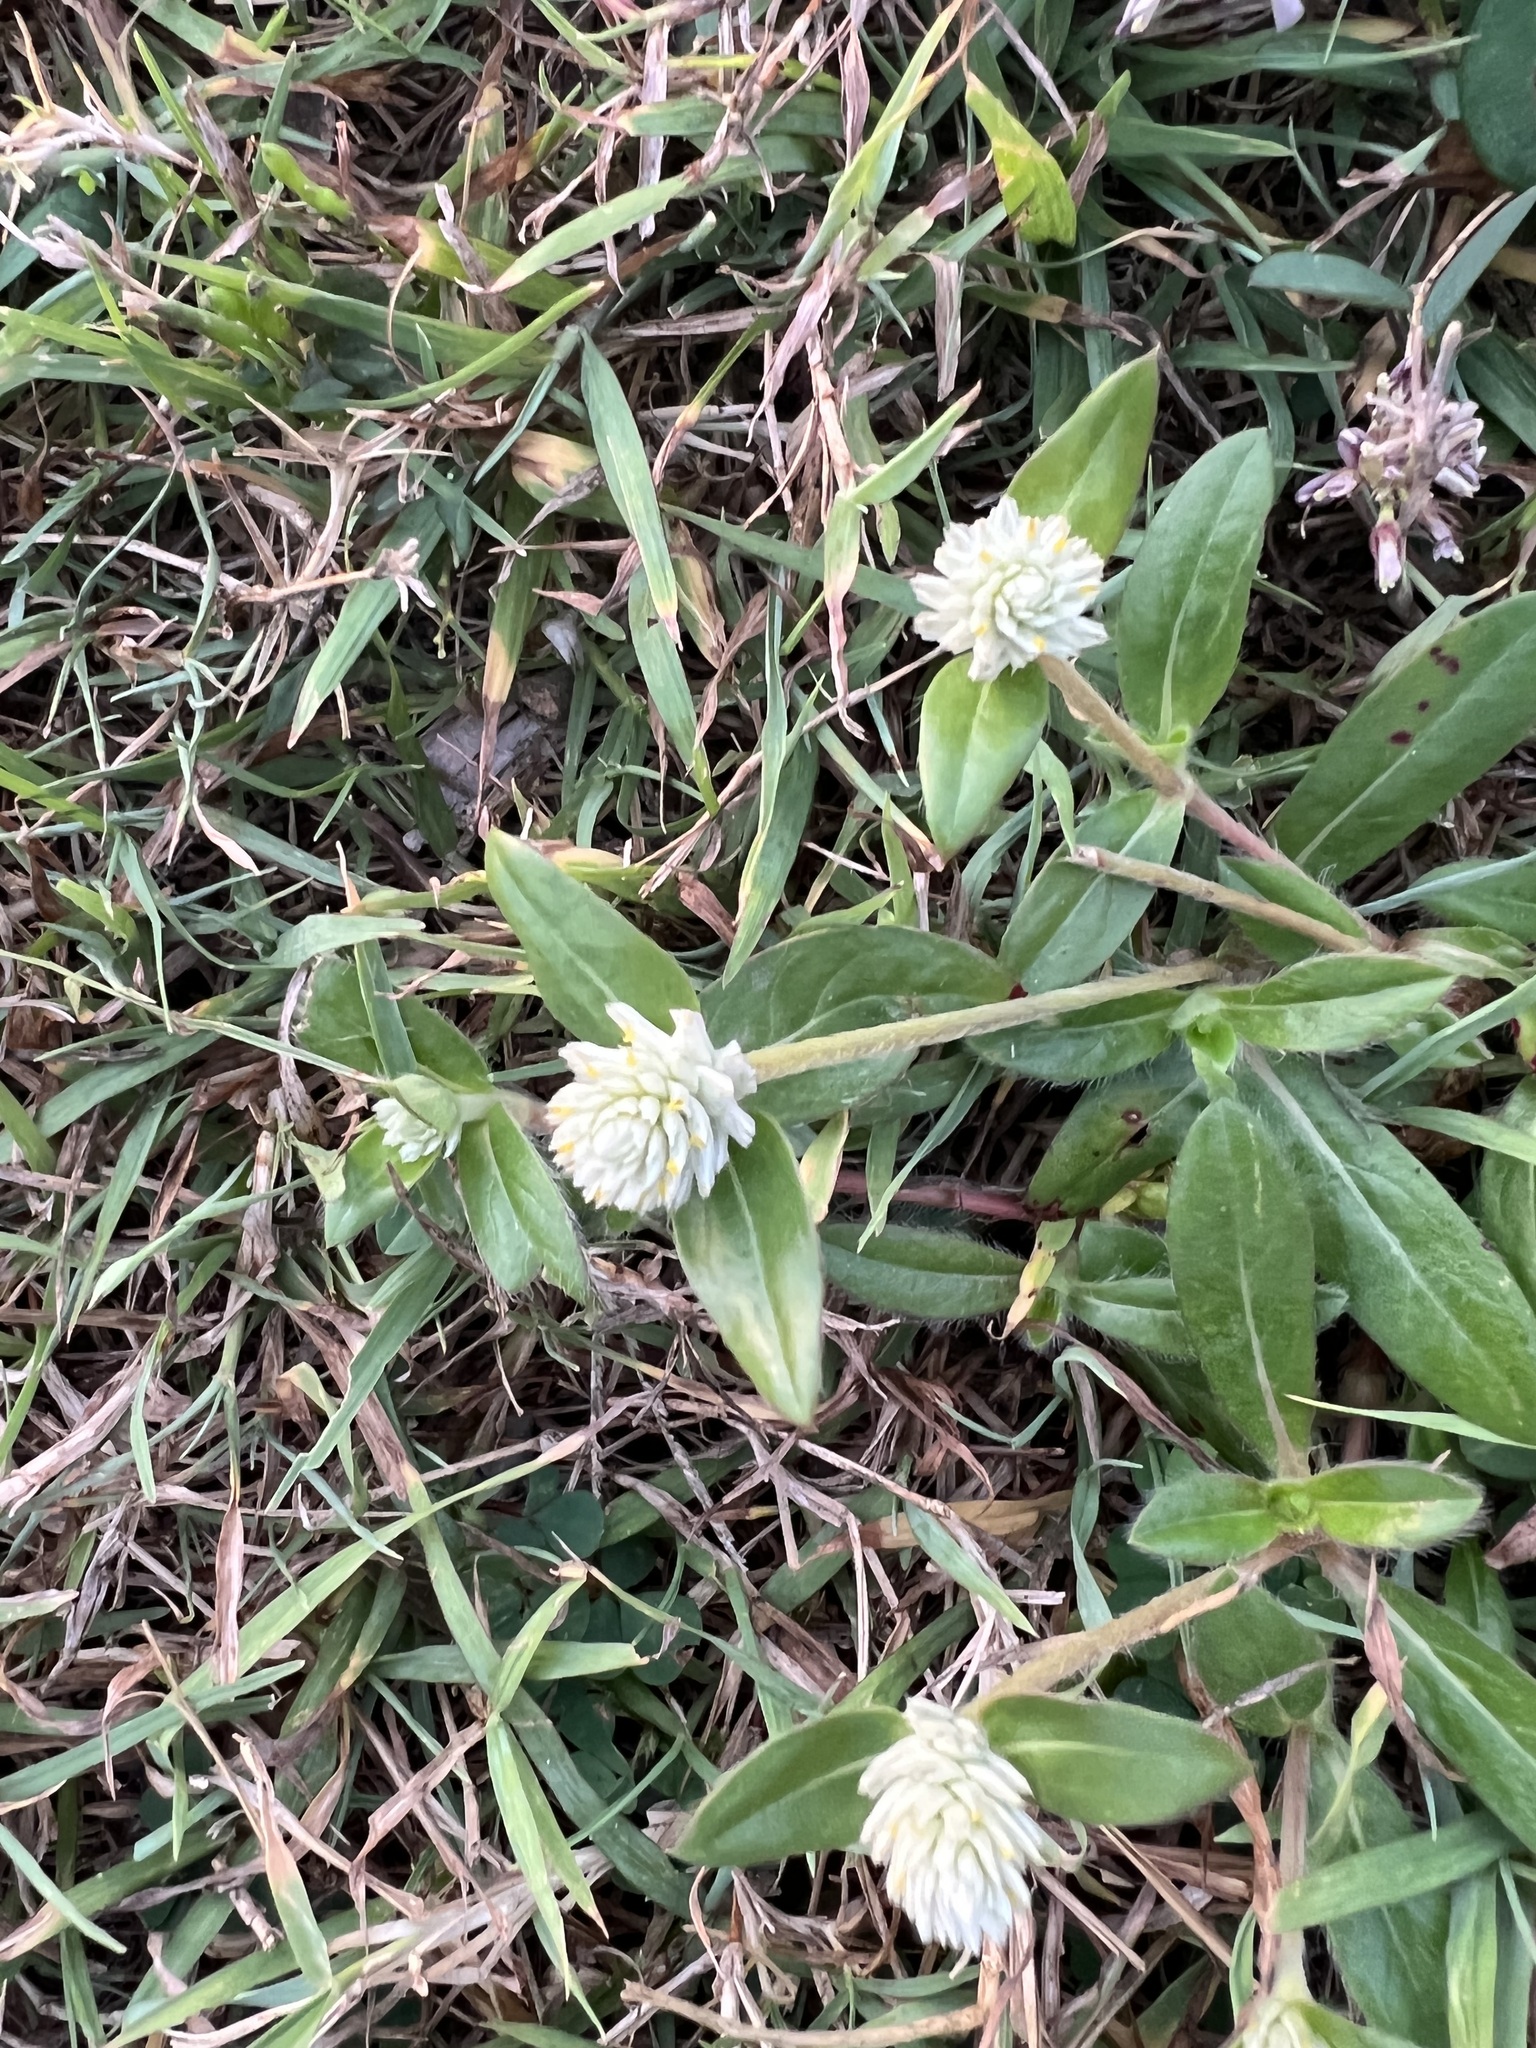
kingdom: Plantae
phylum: Tracheophyta
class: Magnoliopsida
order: Caryophyllales
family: Amaranthaceae
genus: Gomphrena
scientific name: Gomphrena celosioides
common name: Gomphrena-weed
